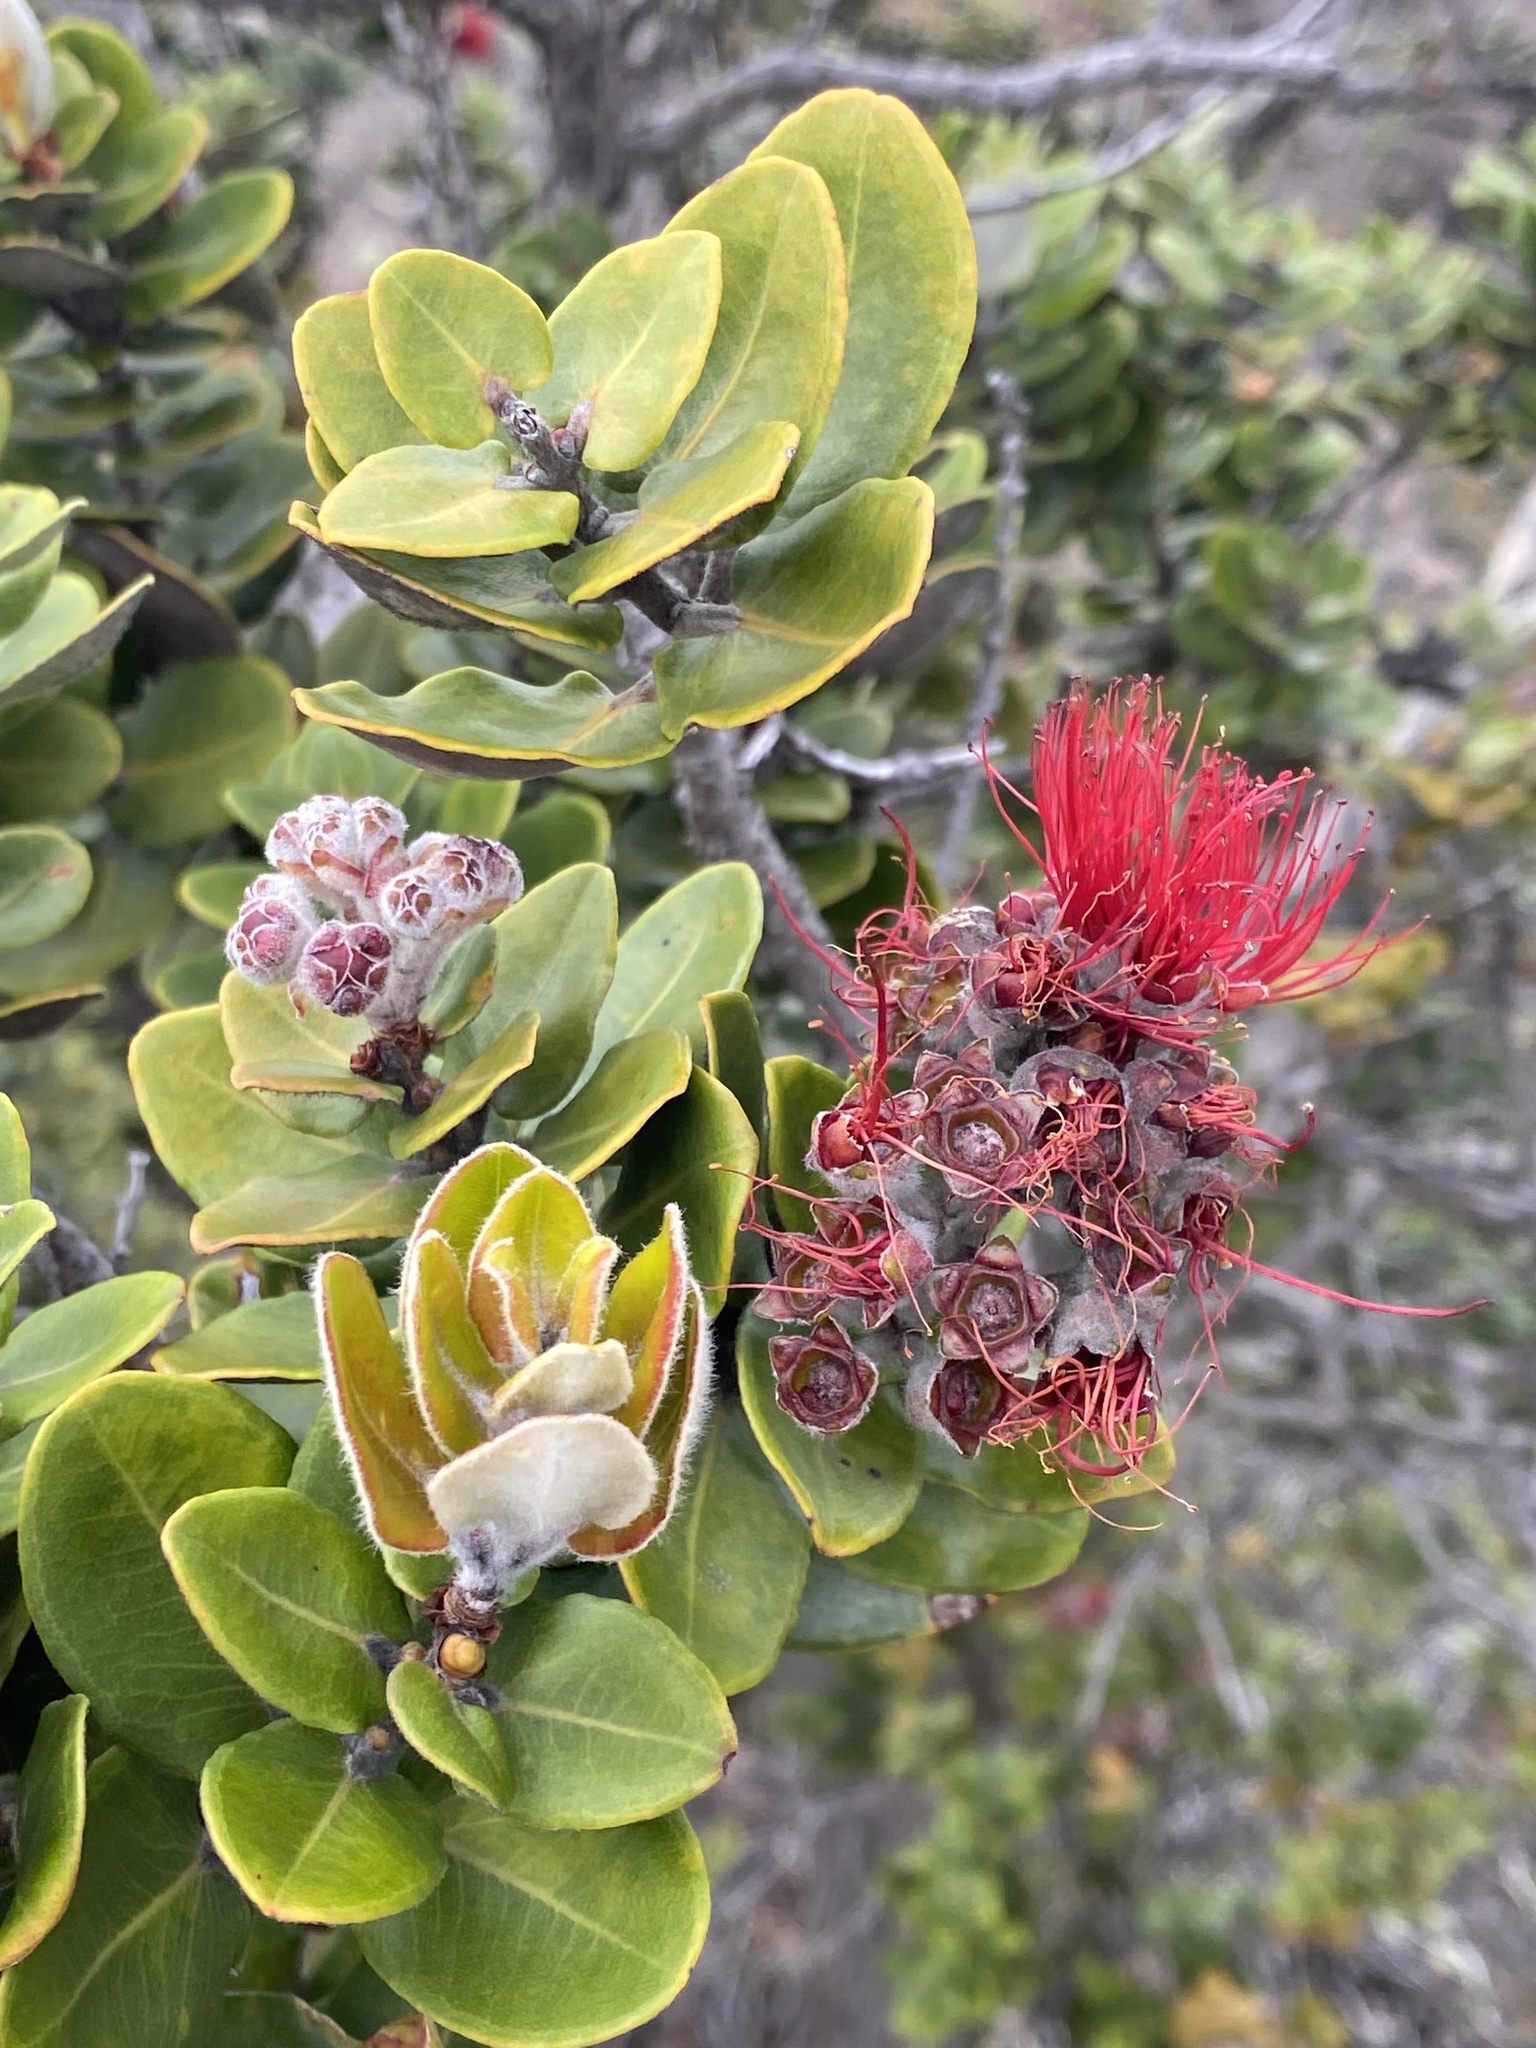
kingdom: Plantae
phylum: Tracheophyta
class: Magnoliopsida
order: Myrtales
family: Myrtaceae
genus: Metrosideros
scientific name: Metrosideros polymorpha
